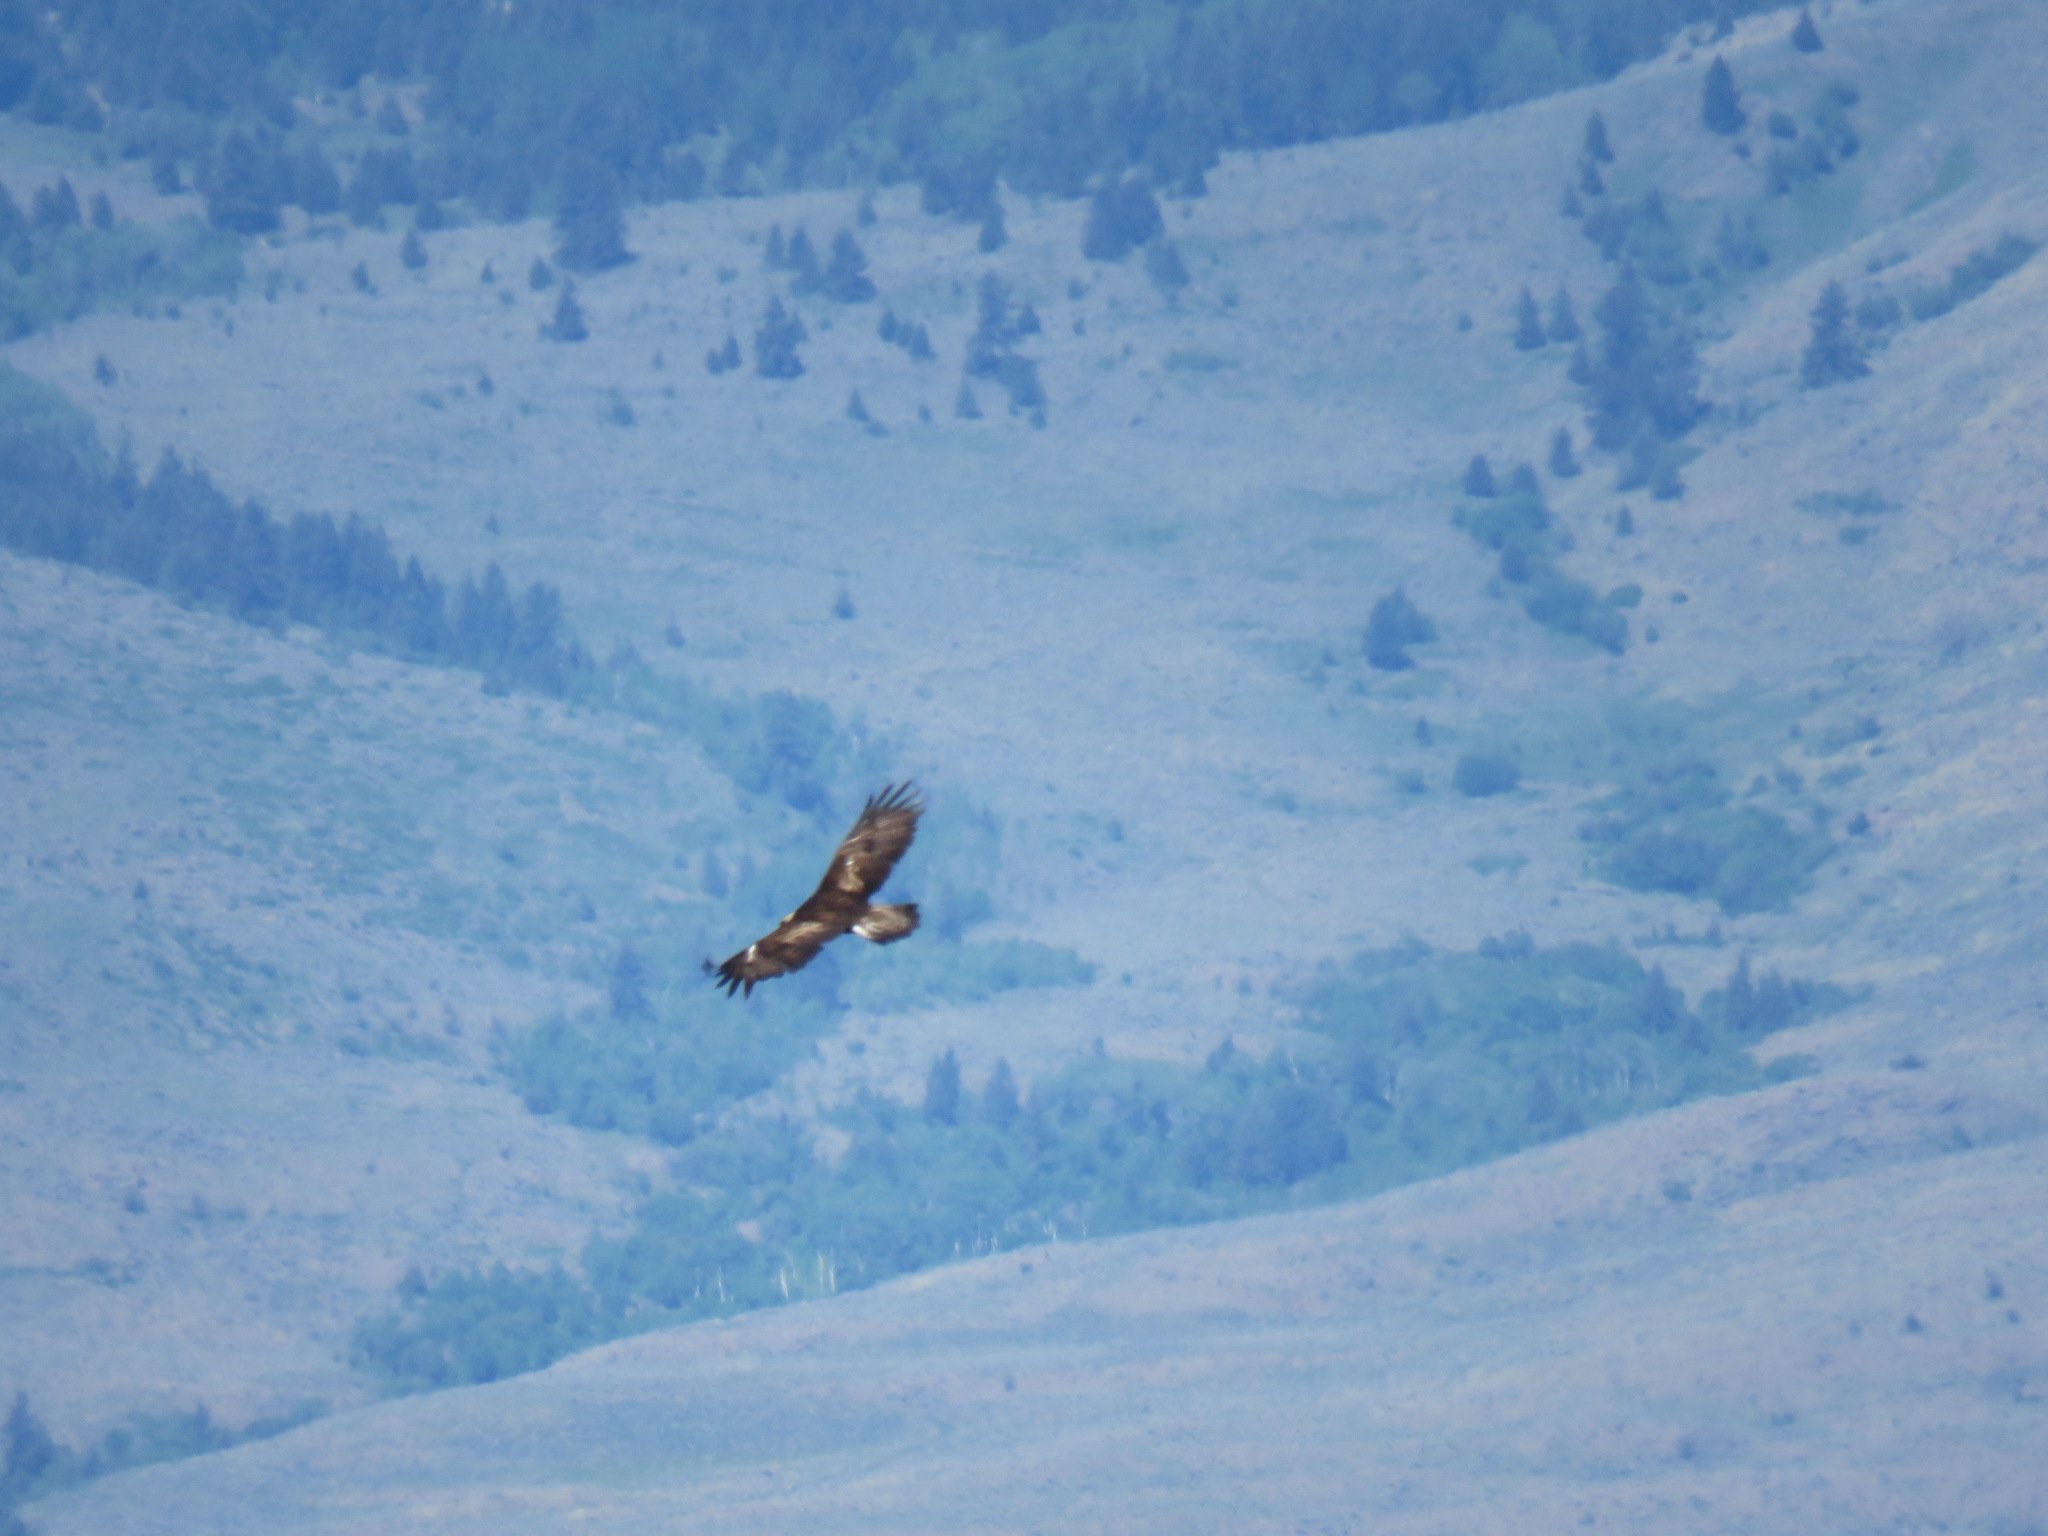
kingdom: Animalia
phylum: Chordata
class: Aves
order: Accipitriformes
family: Accipitridae
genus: Aquila
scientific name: Aquila chrysaetos
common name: Golden eagle
